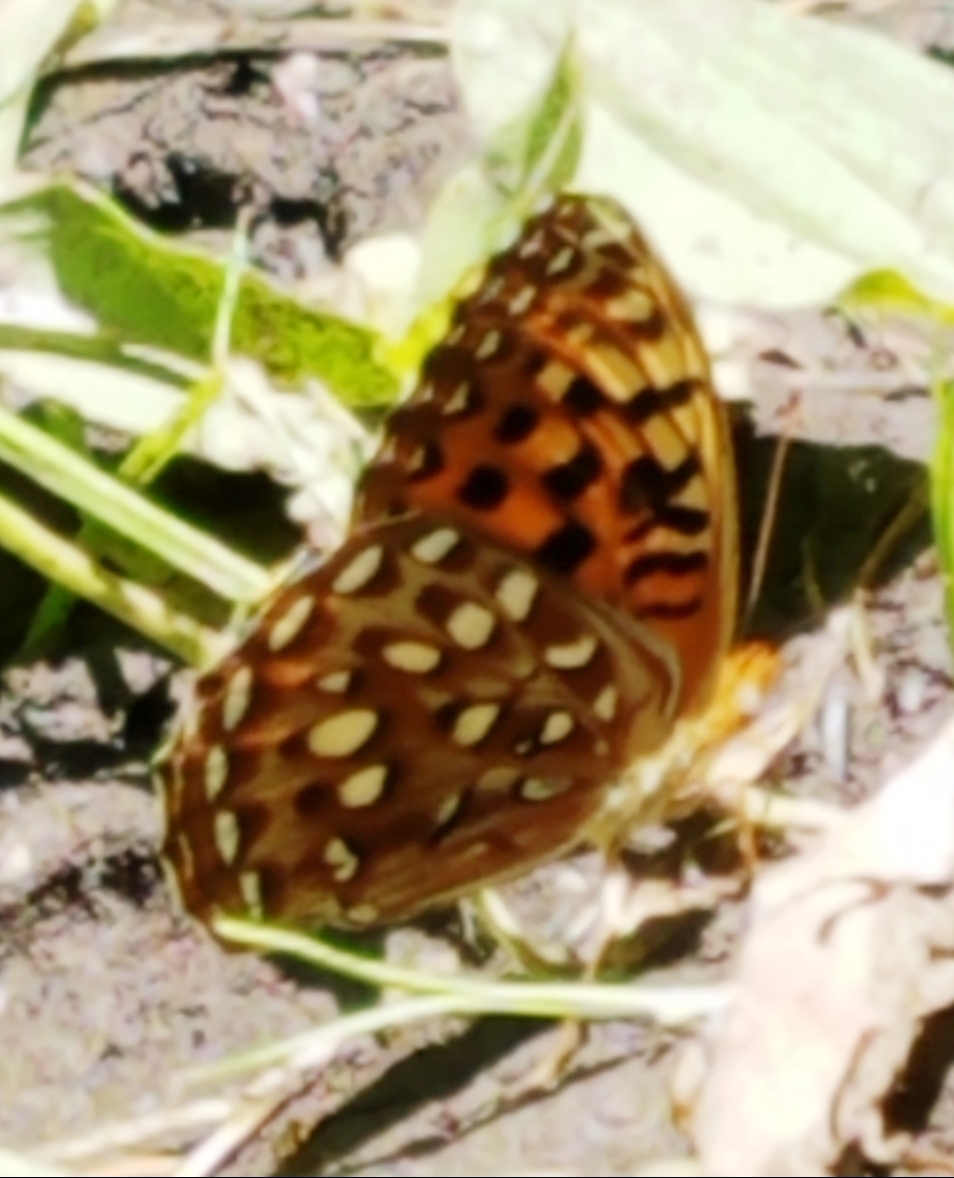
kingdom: Animalia
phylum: Arthropoda
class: Insecta
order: Lepidoptera
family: Nymphalidae
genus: Speyeria
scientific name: Speyeria zerene
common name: Zerene fritillary
